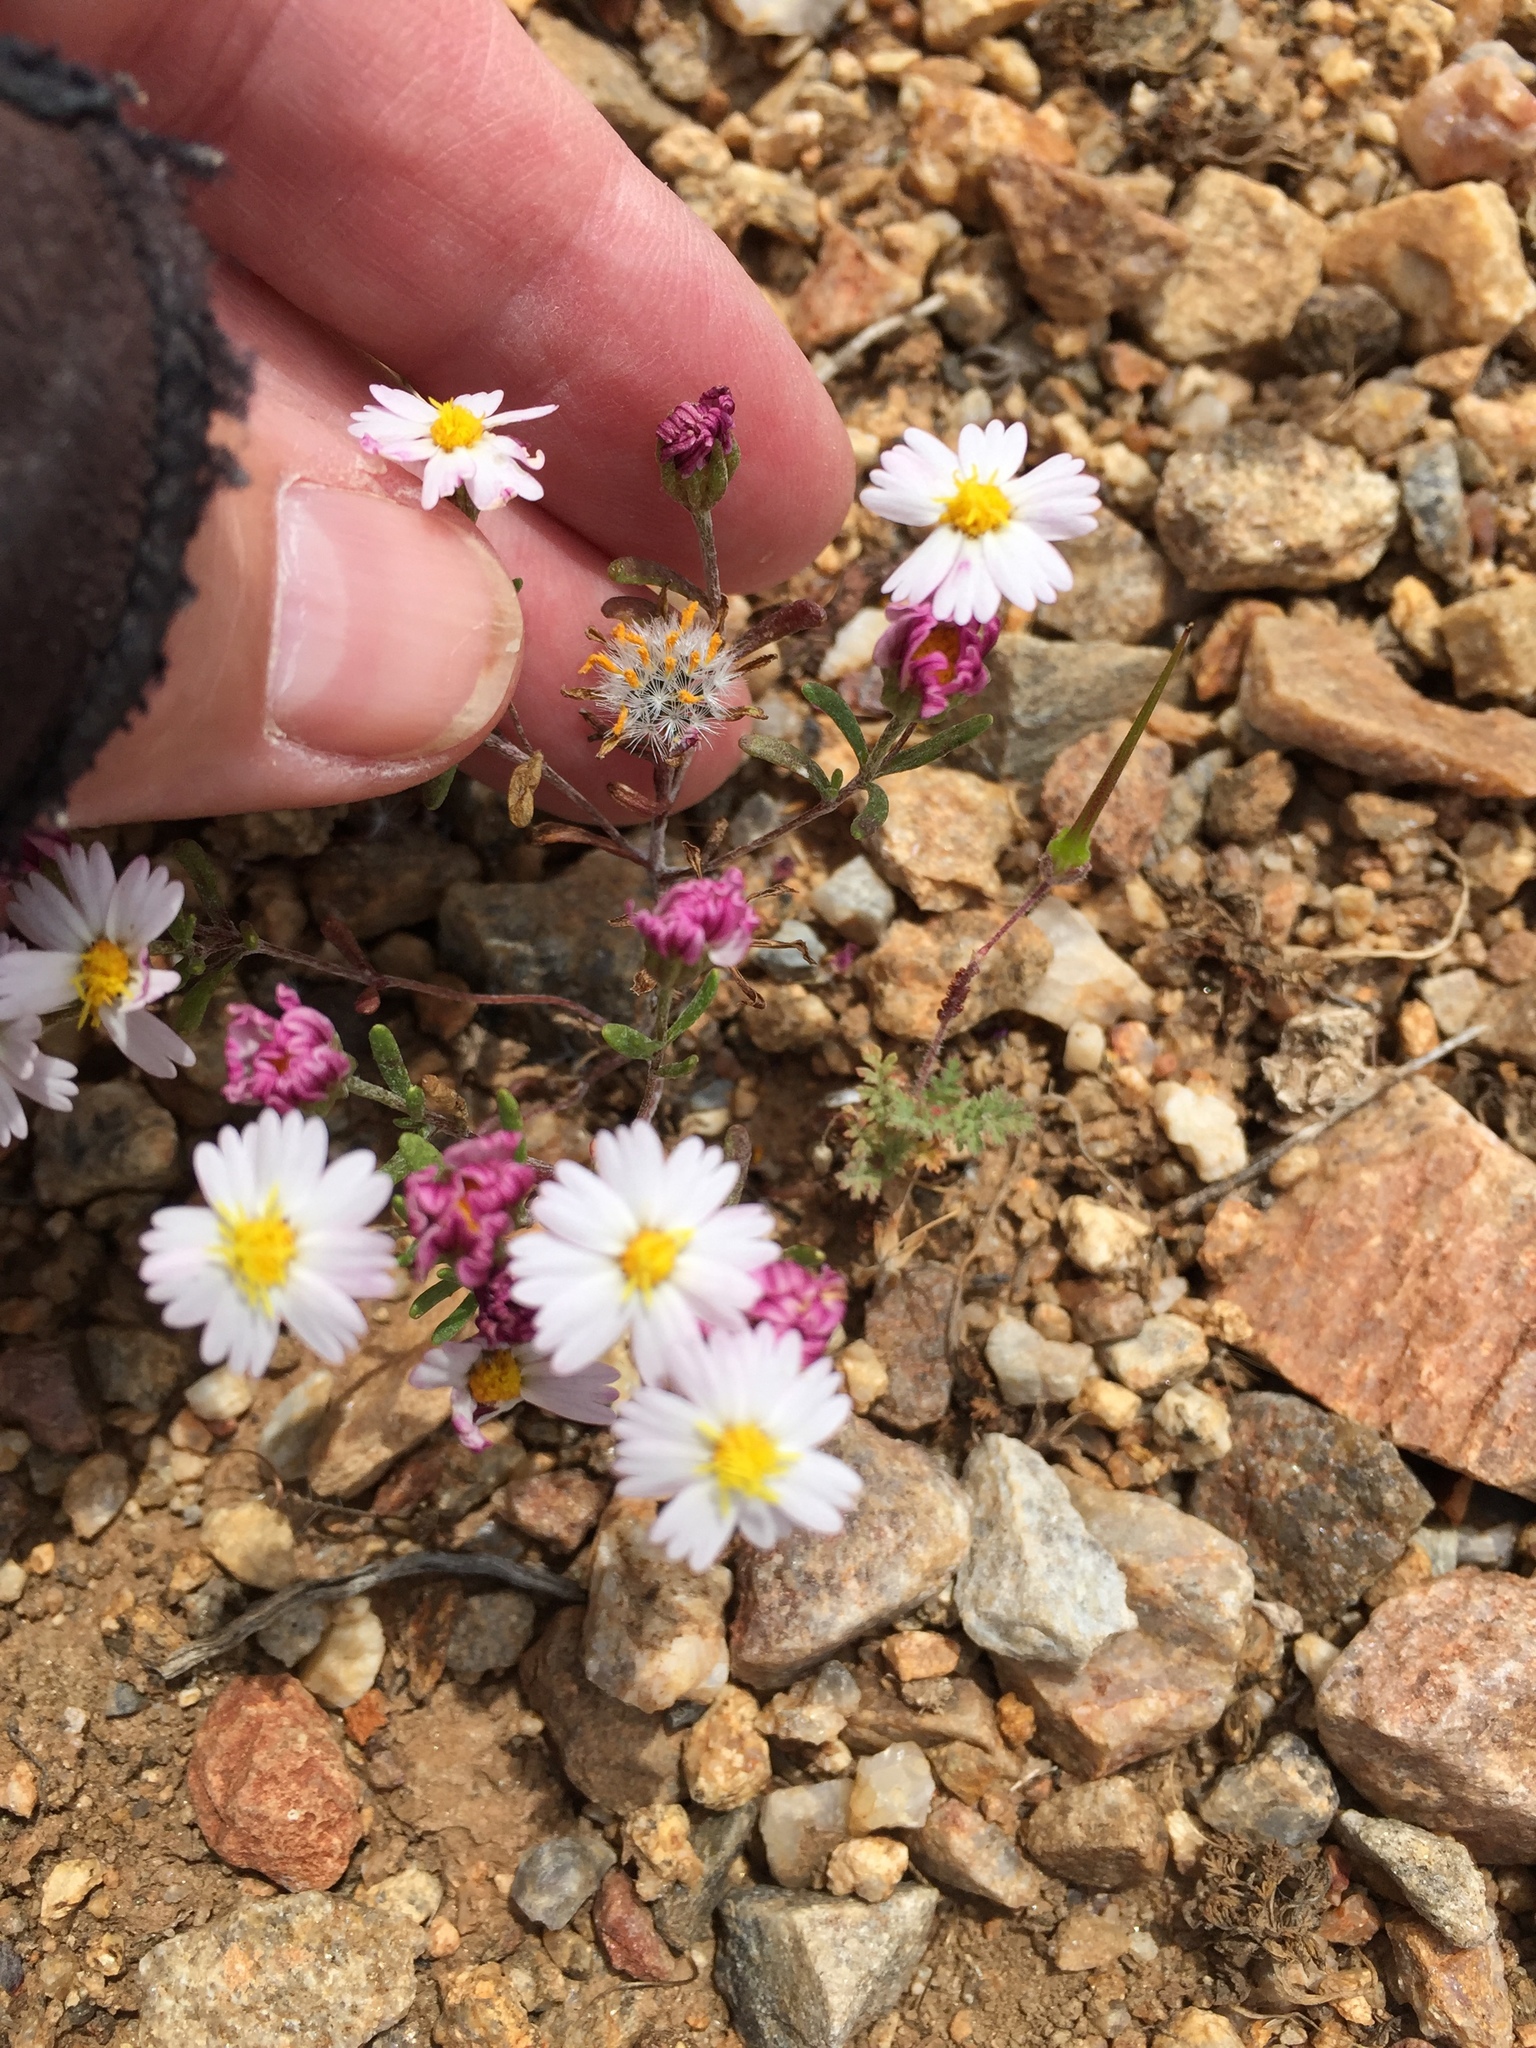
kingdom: Plantae
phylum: Tracheophyta
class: Magnoliopsida
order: Asterales
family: Asteraceae
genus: Syntrichopappus
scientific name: Syntrichopappus lemmonii
